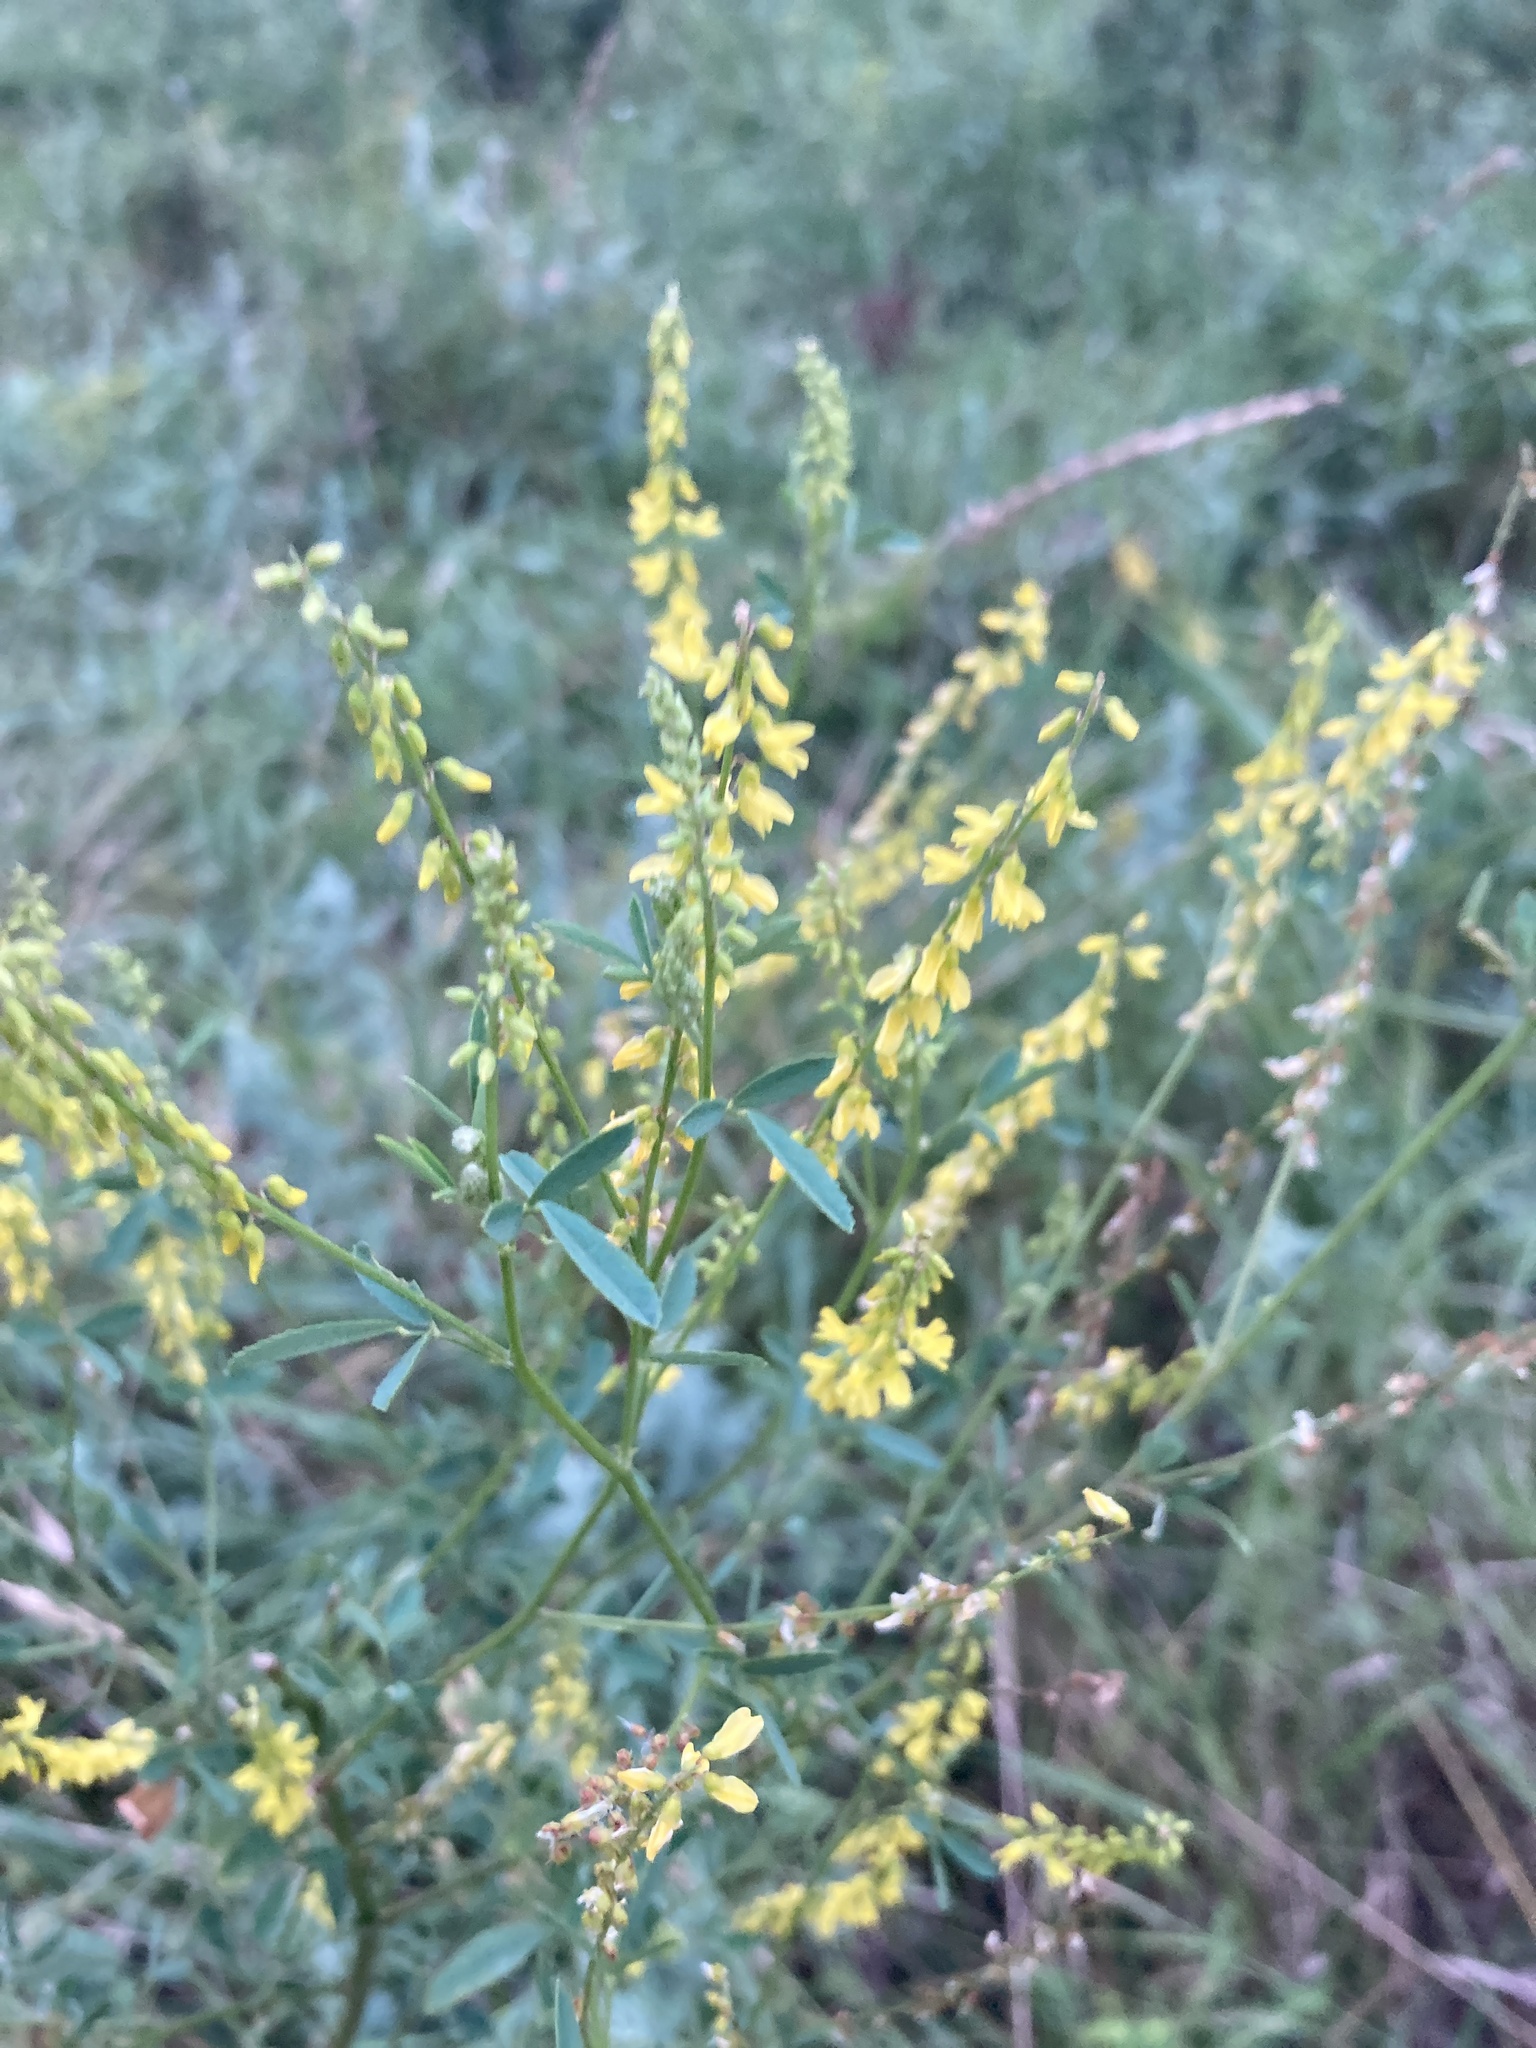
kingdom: Plantae
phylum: Tracheophyta
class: Magnoliopsida
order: Fabales
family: Fabaceae
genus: Melilotus
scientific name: Melilotus officinalis
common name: Sweetclover
